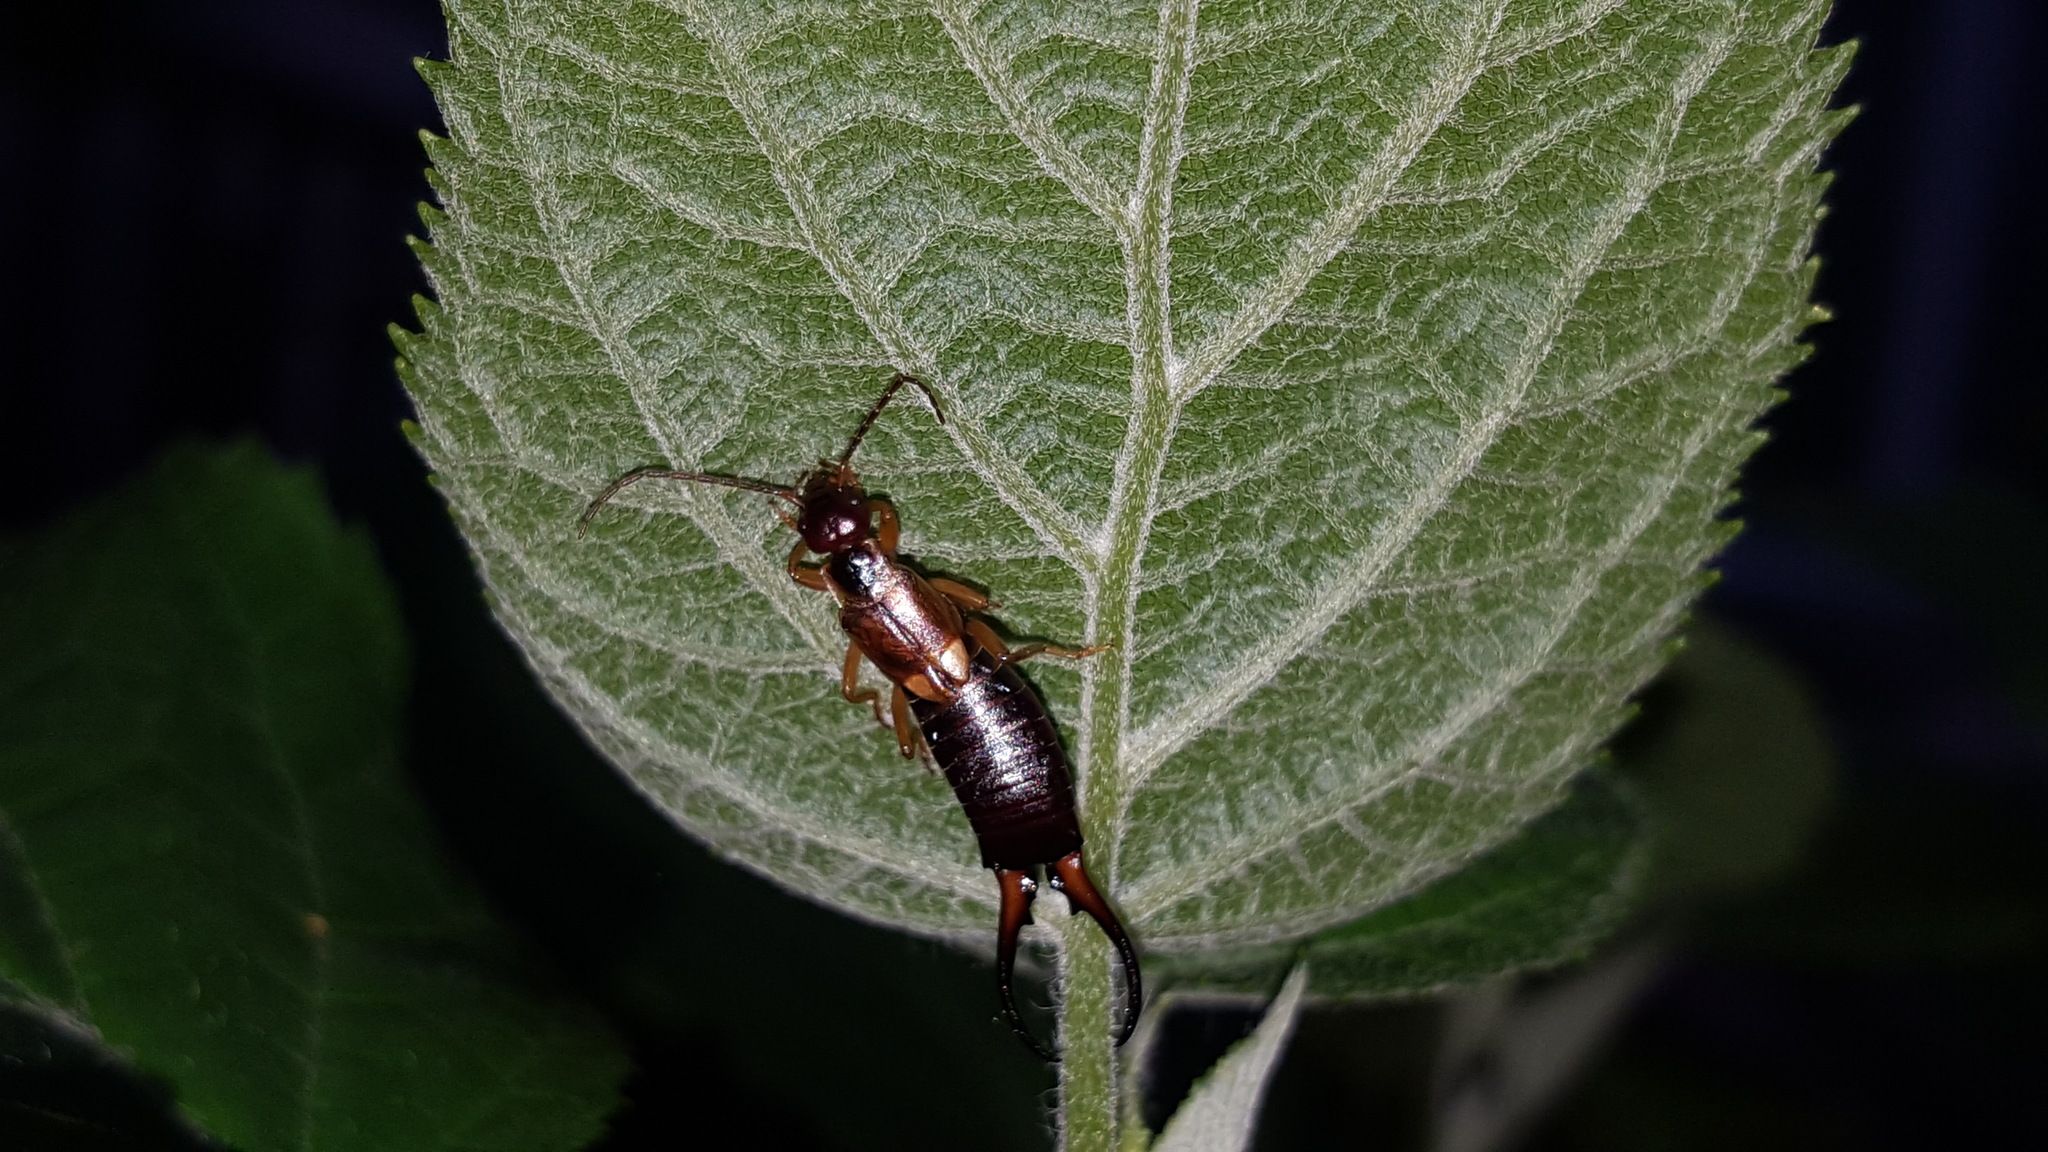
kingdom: Animalia
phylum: Arthropoda
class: Insecta
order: Dermaptera
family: Forficulidae
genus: Forficula
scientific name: Forficula
